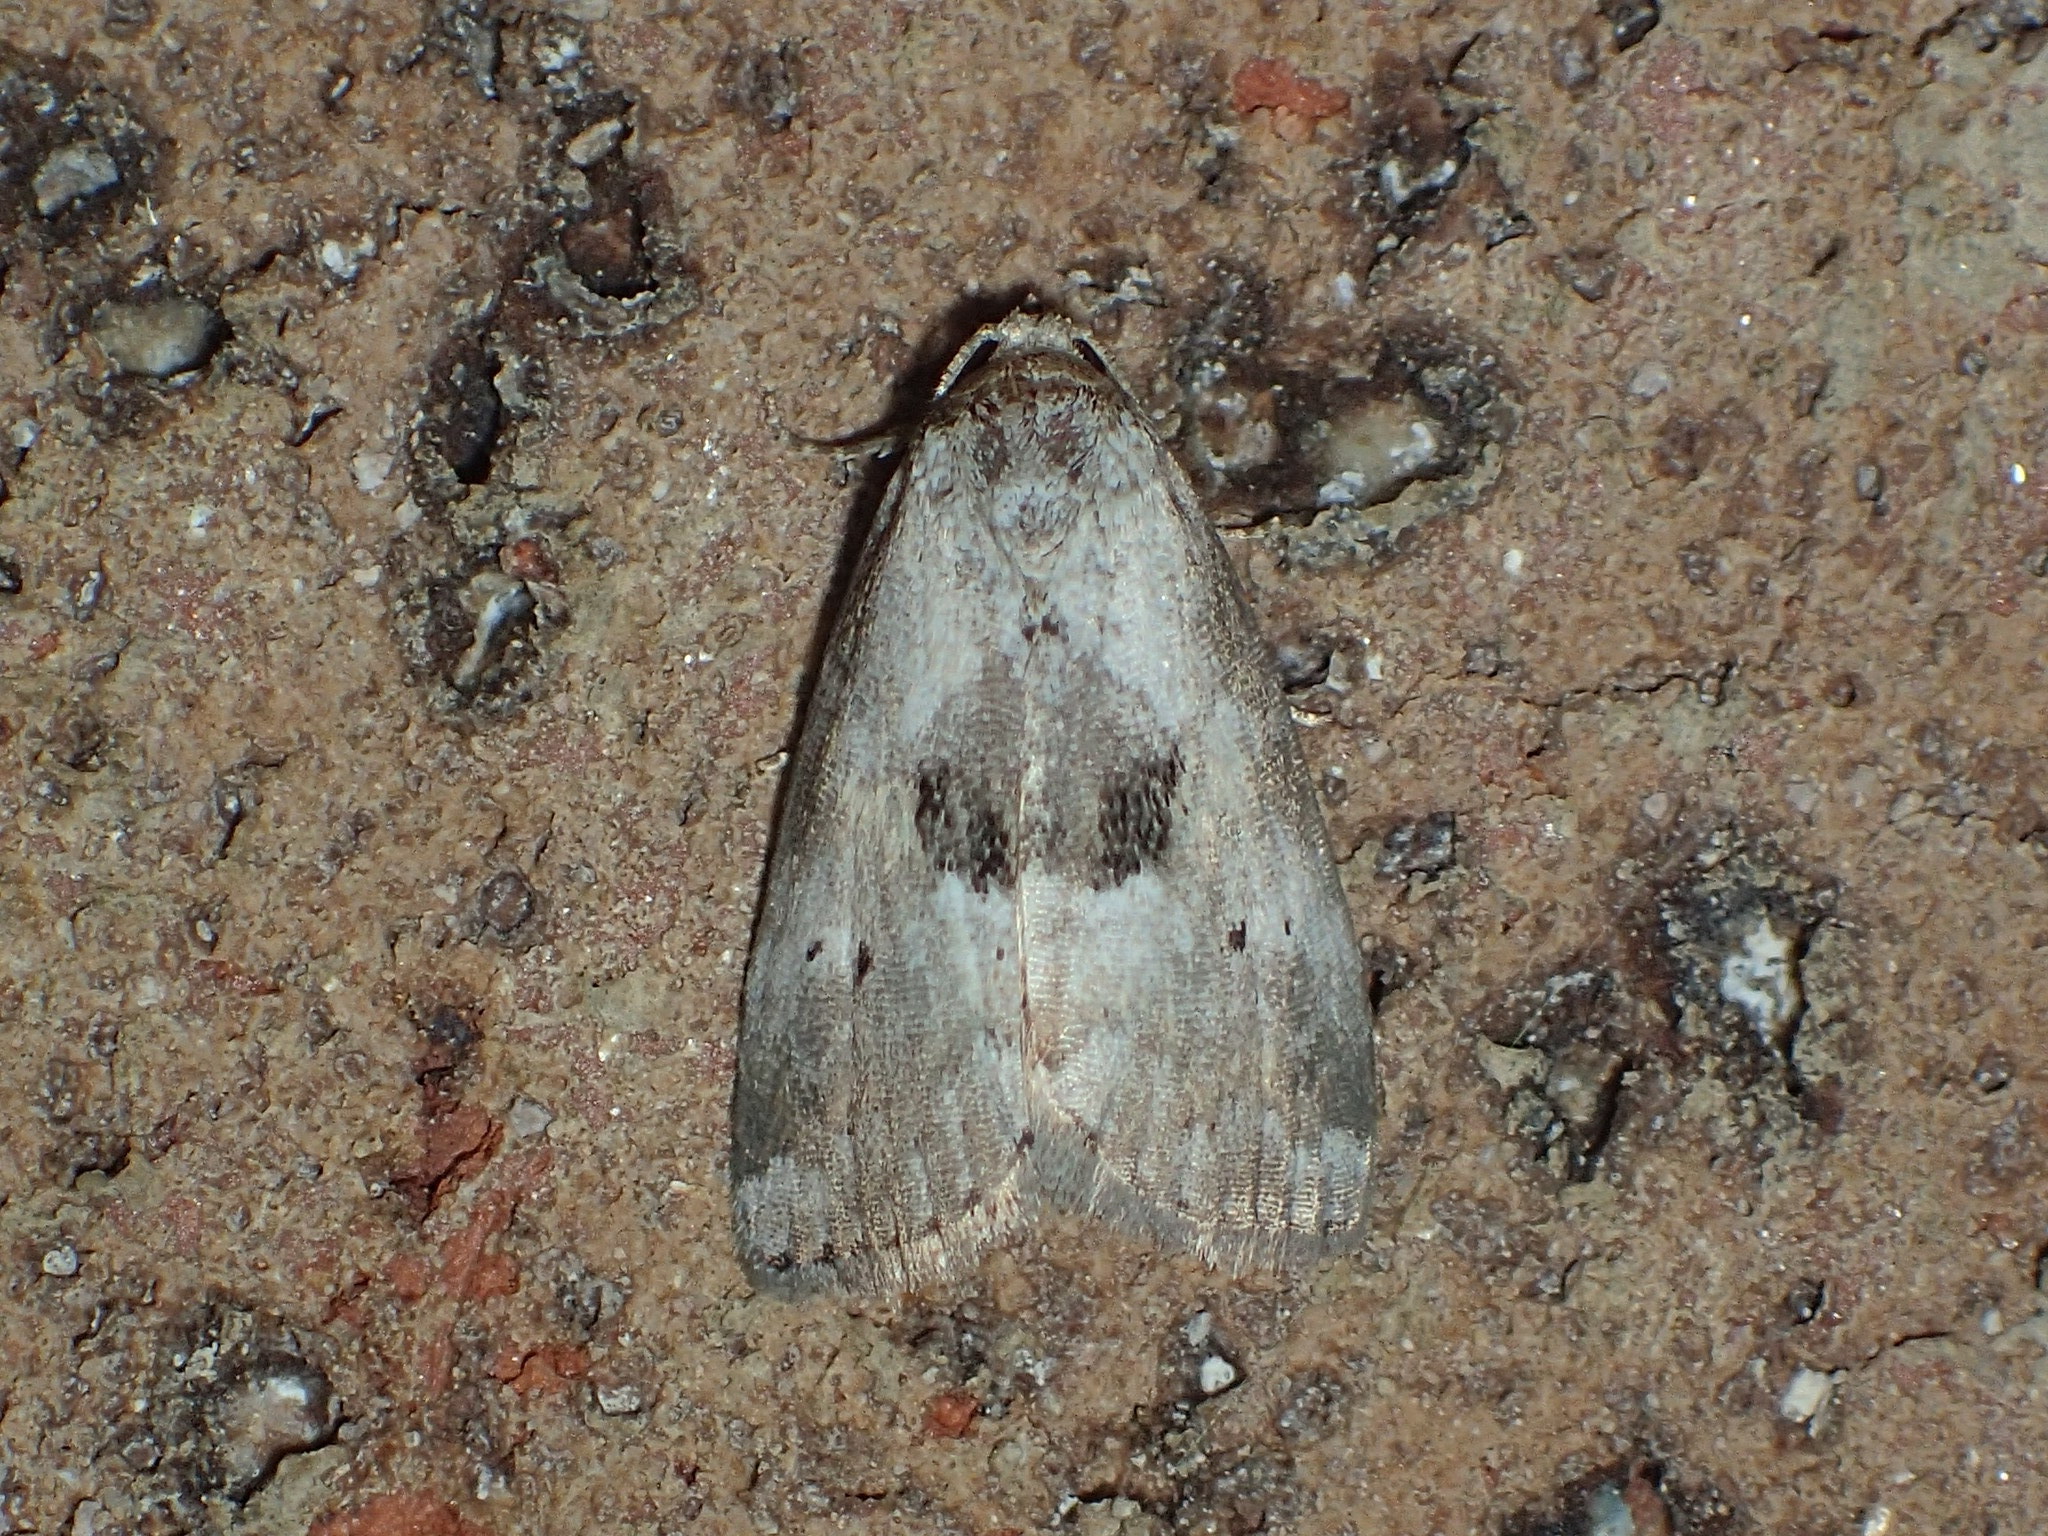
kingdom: Animalia
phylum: Arthropoda
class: Insecta
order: Lepidoptera
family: Erebidae
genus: Hyperstrotia
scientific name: Hyperstrotia secta
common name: Black-patched graylet
